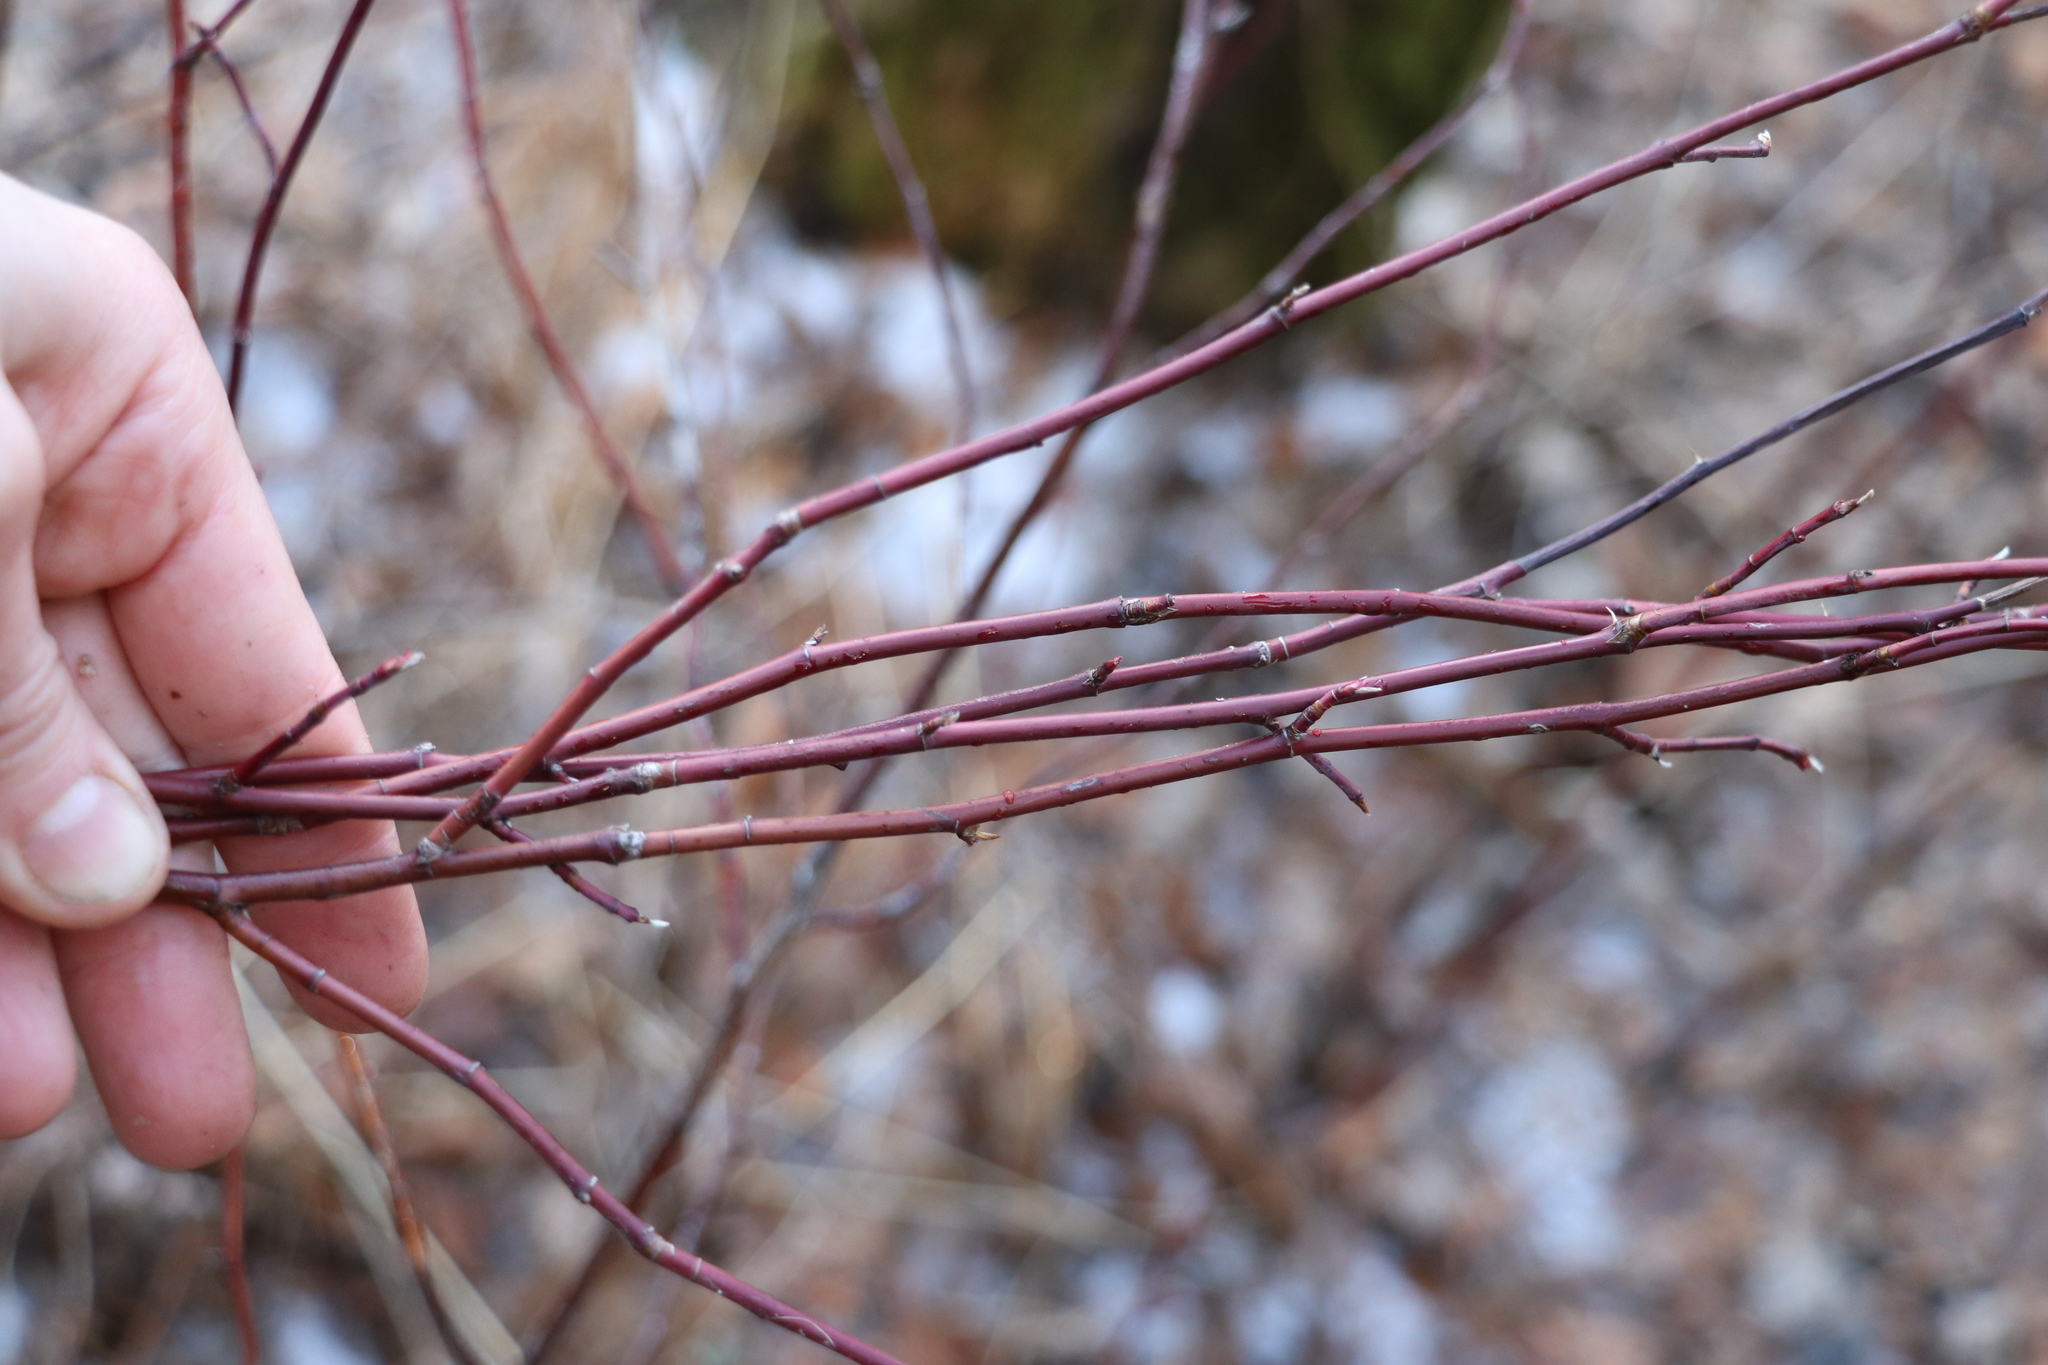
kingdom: Plantae
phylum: Tracheophyta
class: Magnoliopsida
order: Rosales
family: Rosaceae
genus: Rosa
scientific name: Rosa majalis
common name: Cinnamon rose
